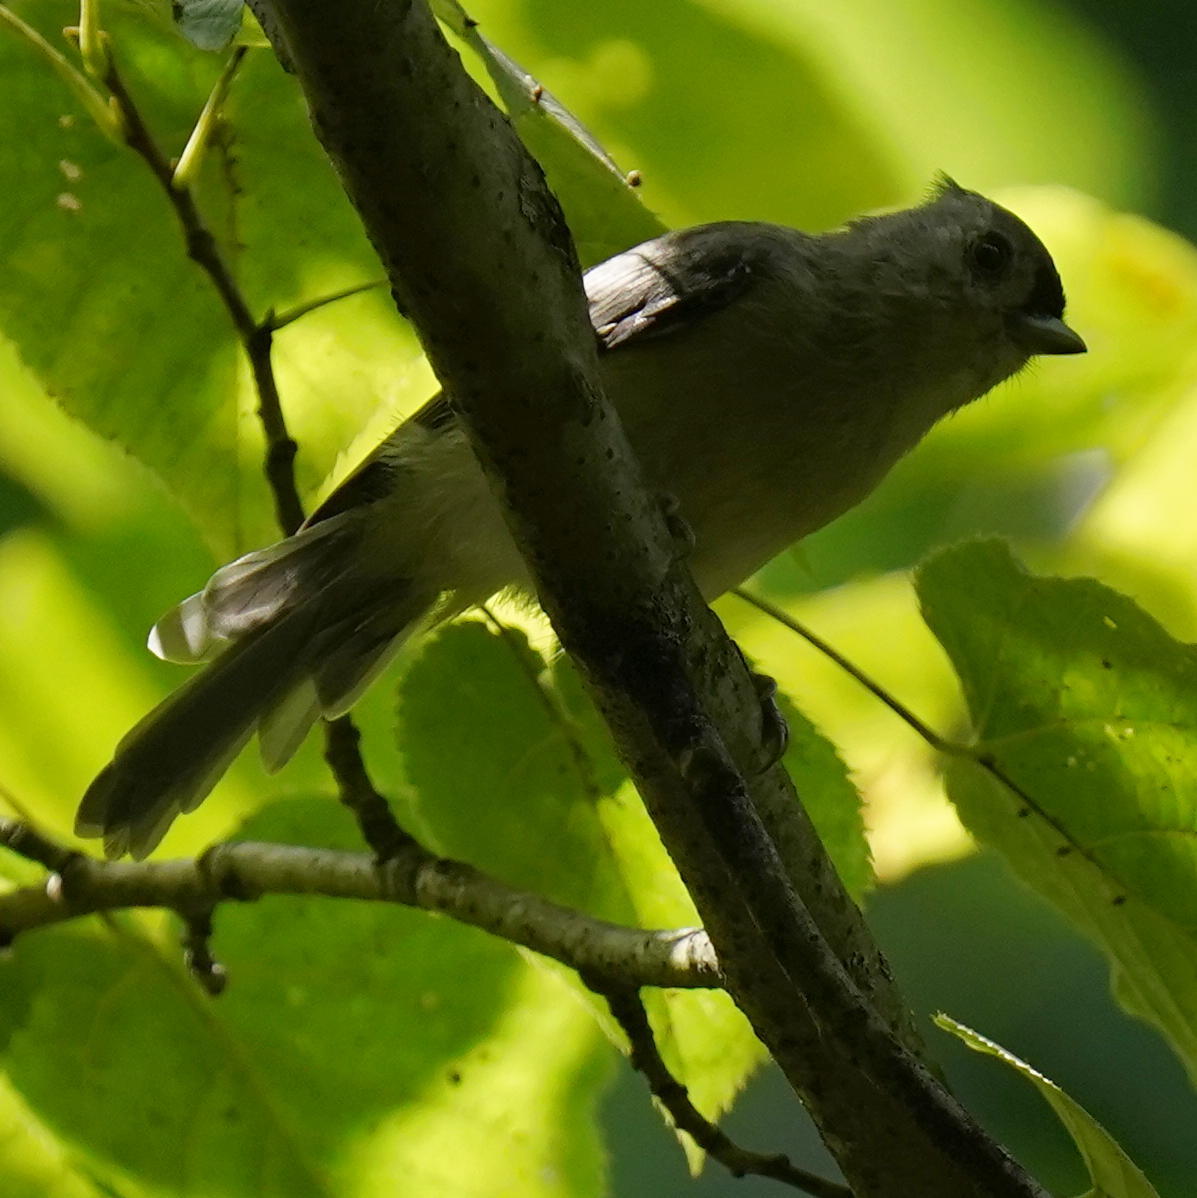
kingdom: Animalia
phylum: Chordata
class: Aves
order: Passeriformes
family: Paridae
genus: Baeolophus
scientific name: Baeolophus bicolor
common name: Tufted titmouse
